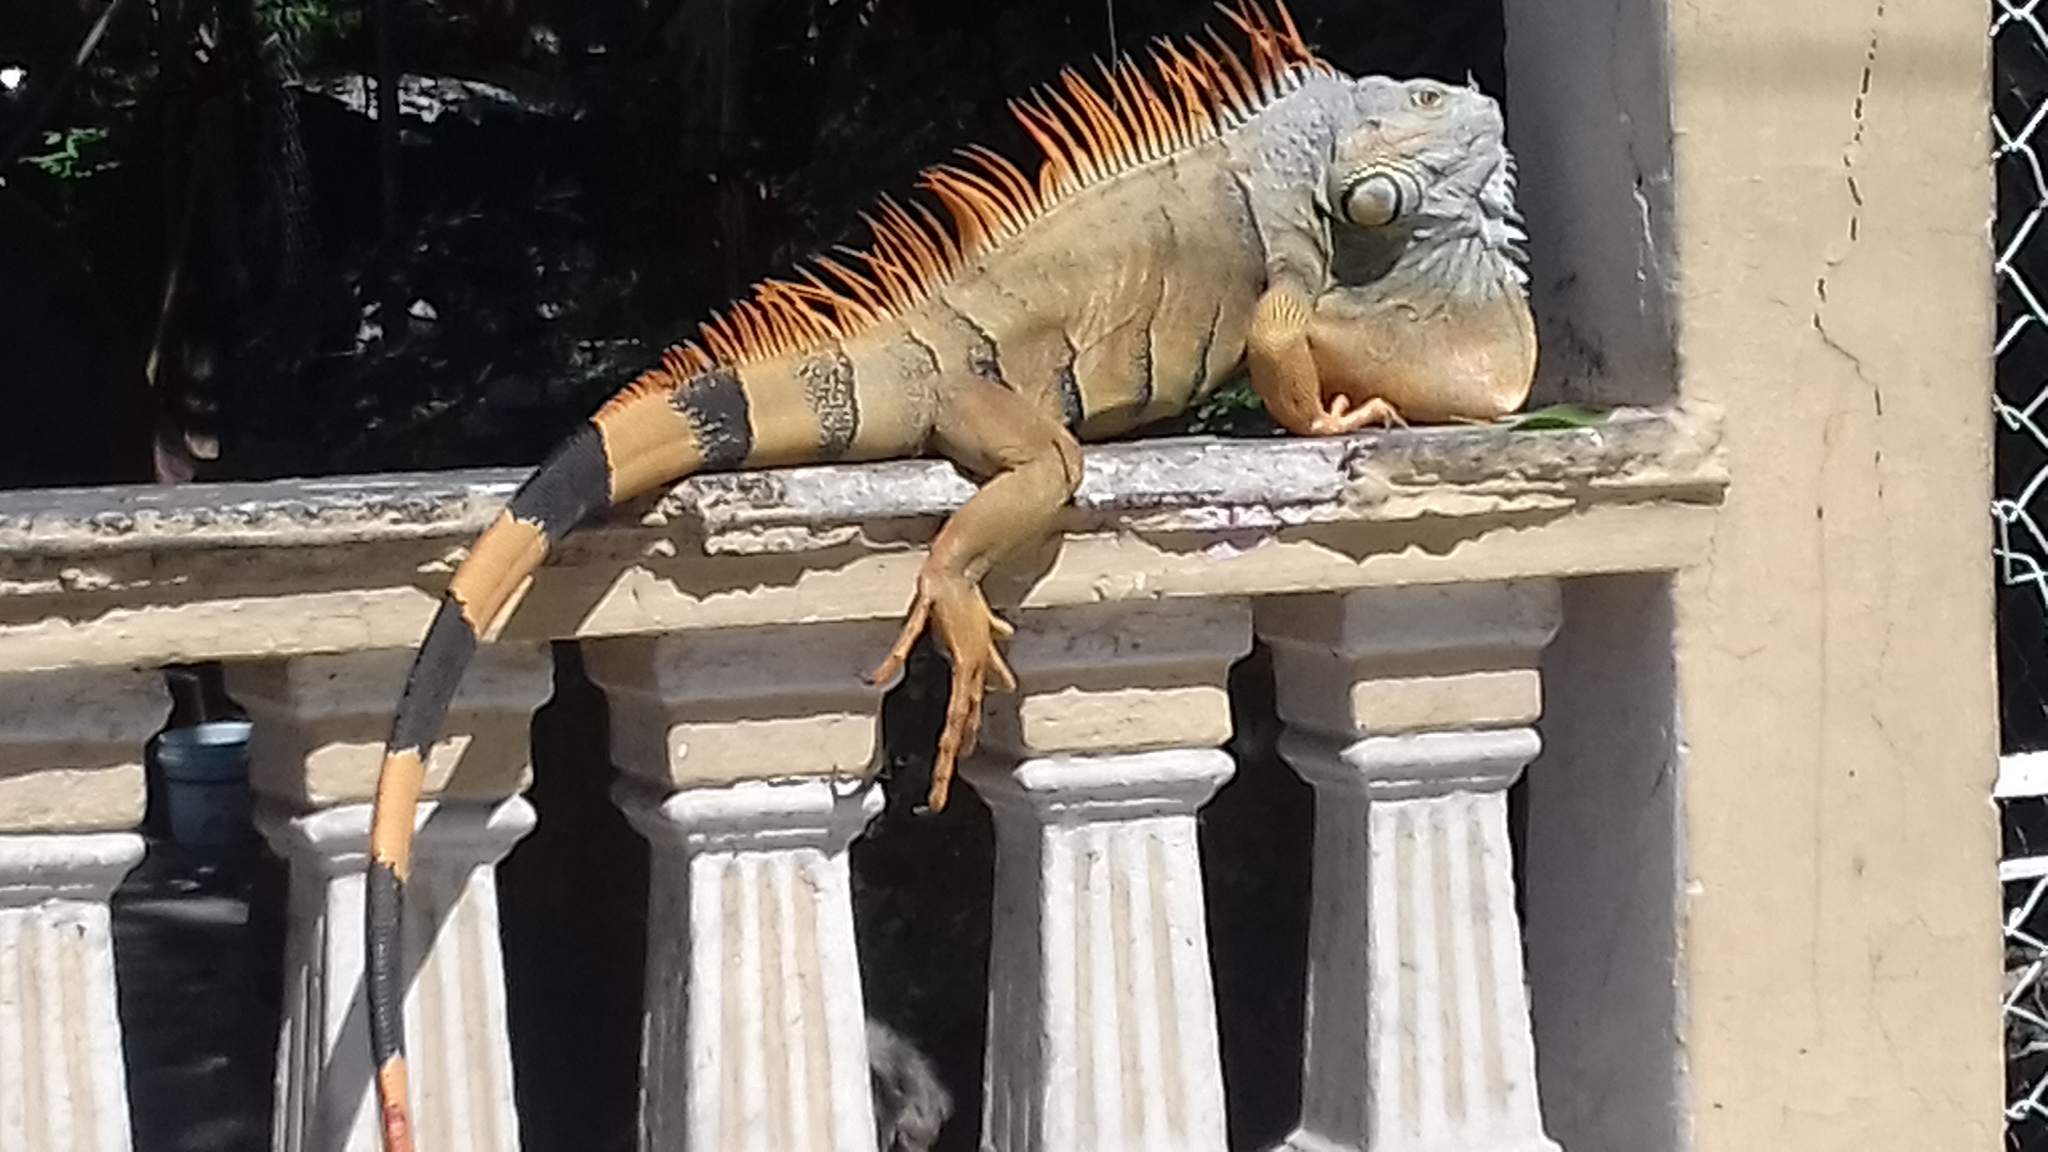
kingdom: Animalia
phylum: Chordata
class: Squamata
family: Iguanidae
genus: Iguana
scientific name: Iguana iguana
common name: Green iguana
